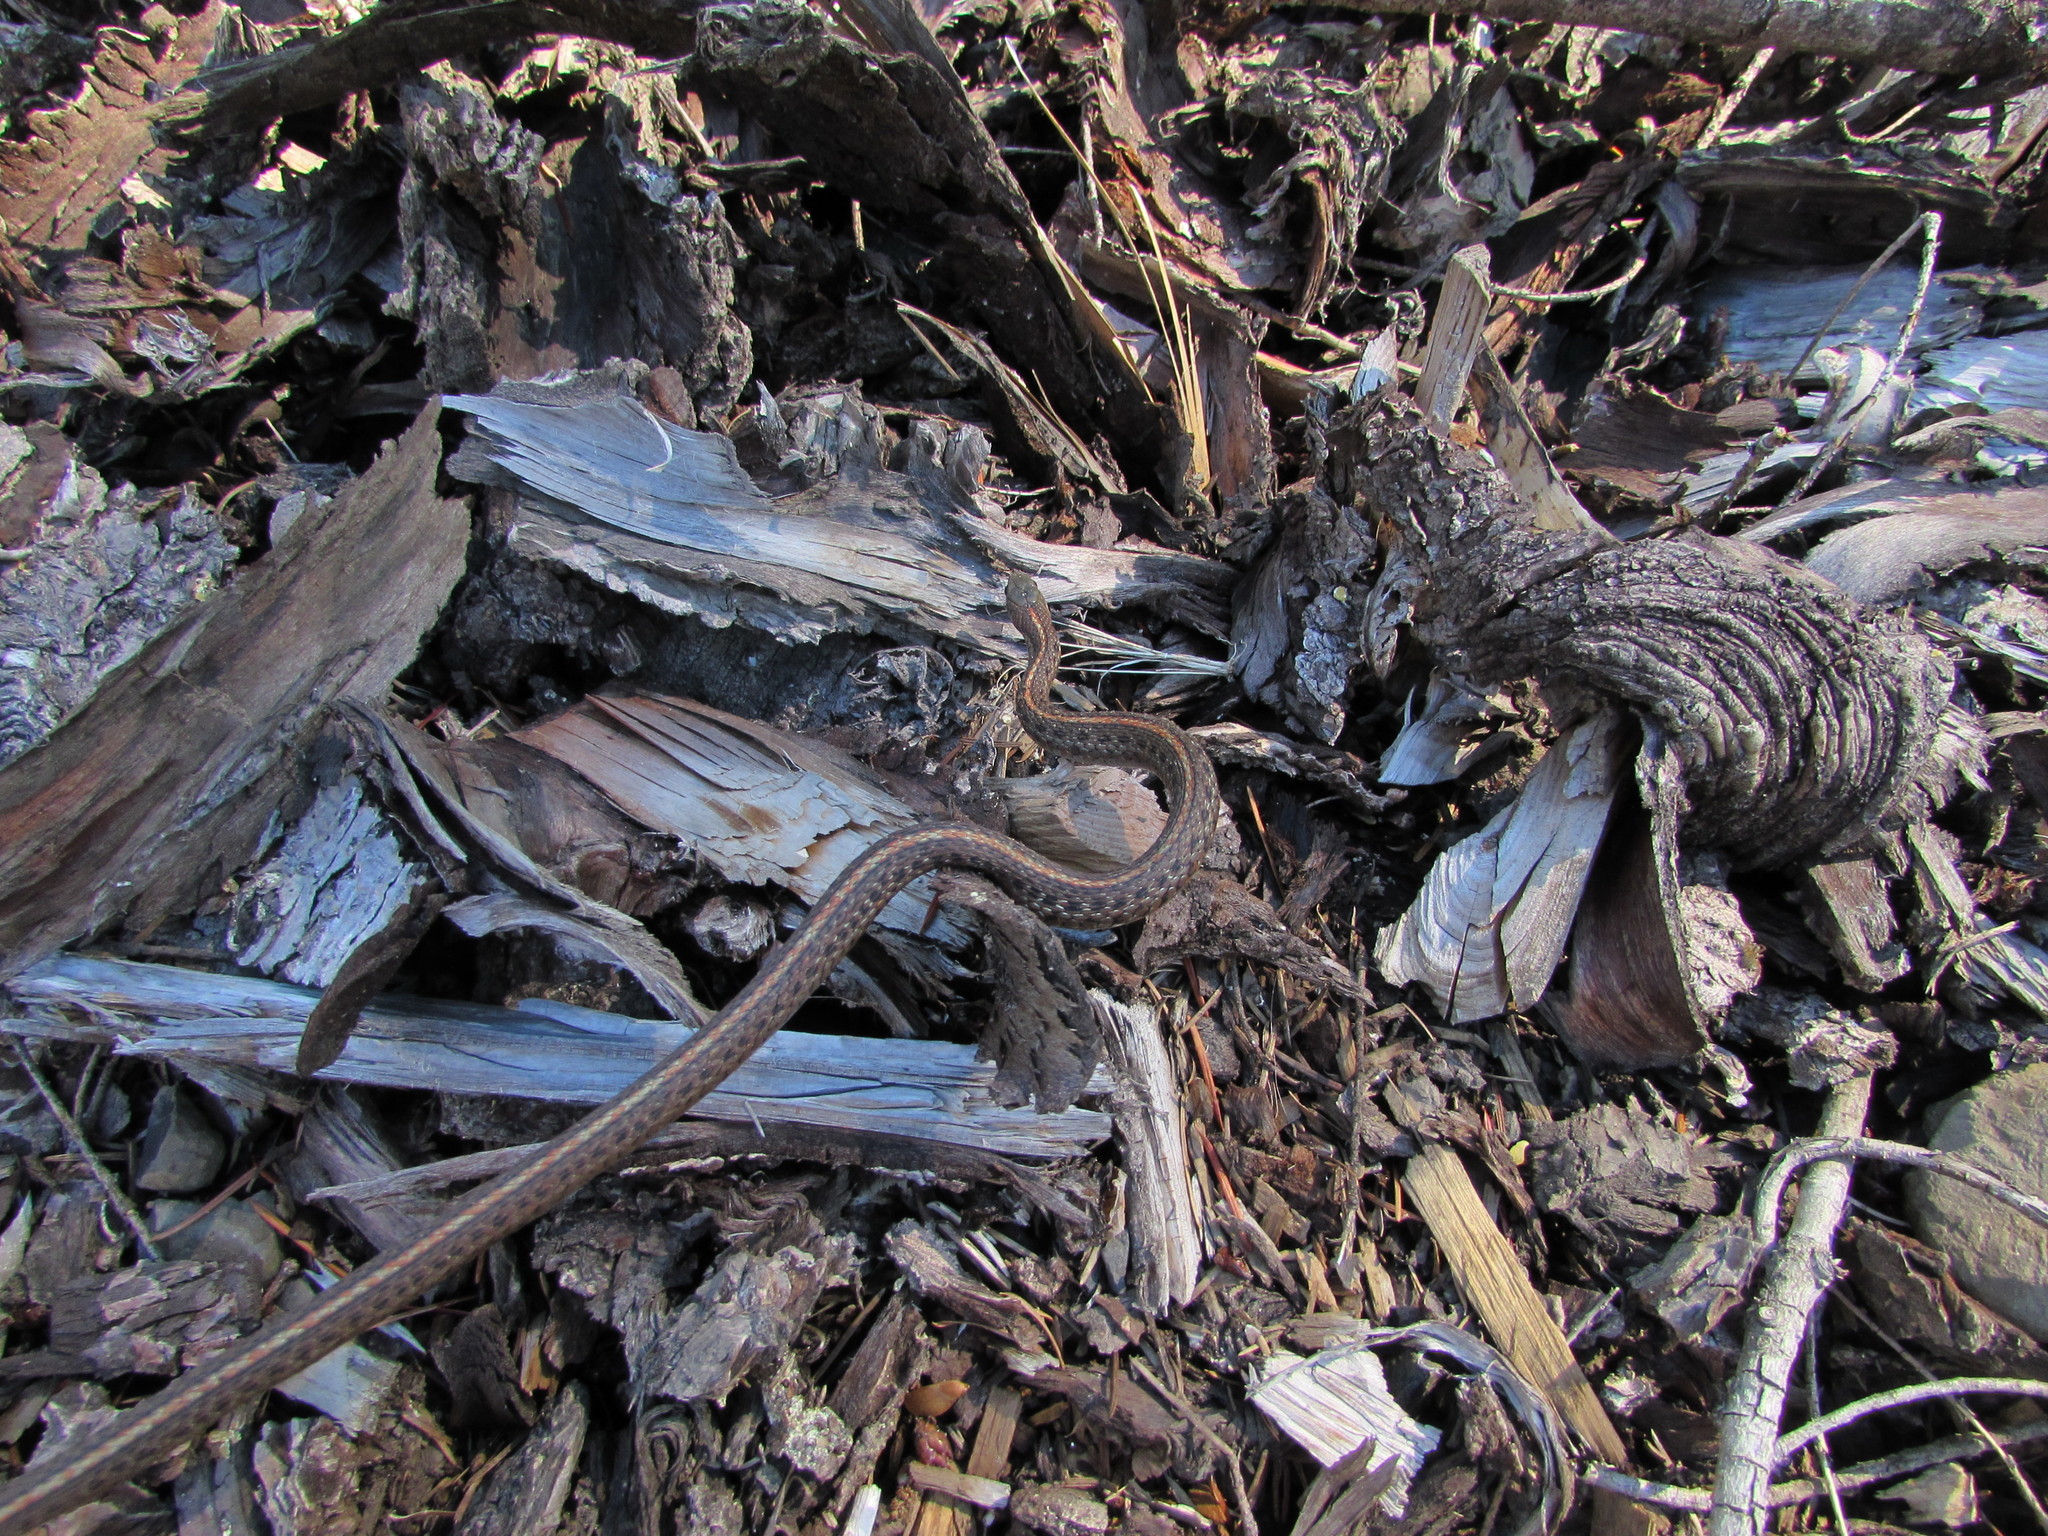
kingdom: Animalia
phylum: Chordata
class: Squamata
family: Colubridae
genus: Thamnophis
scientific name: Thamnophis ordinoides
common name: Northwestern garter snake
